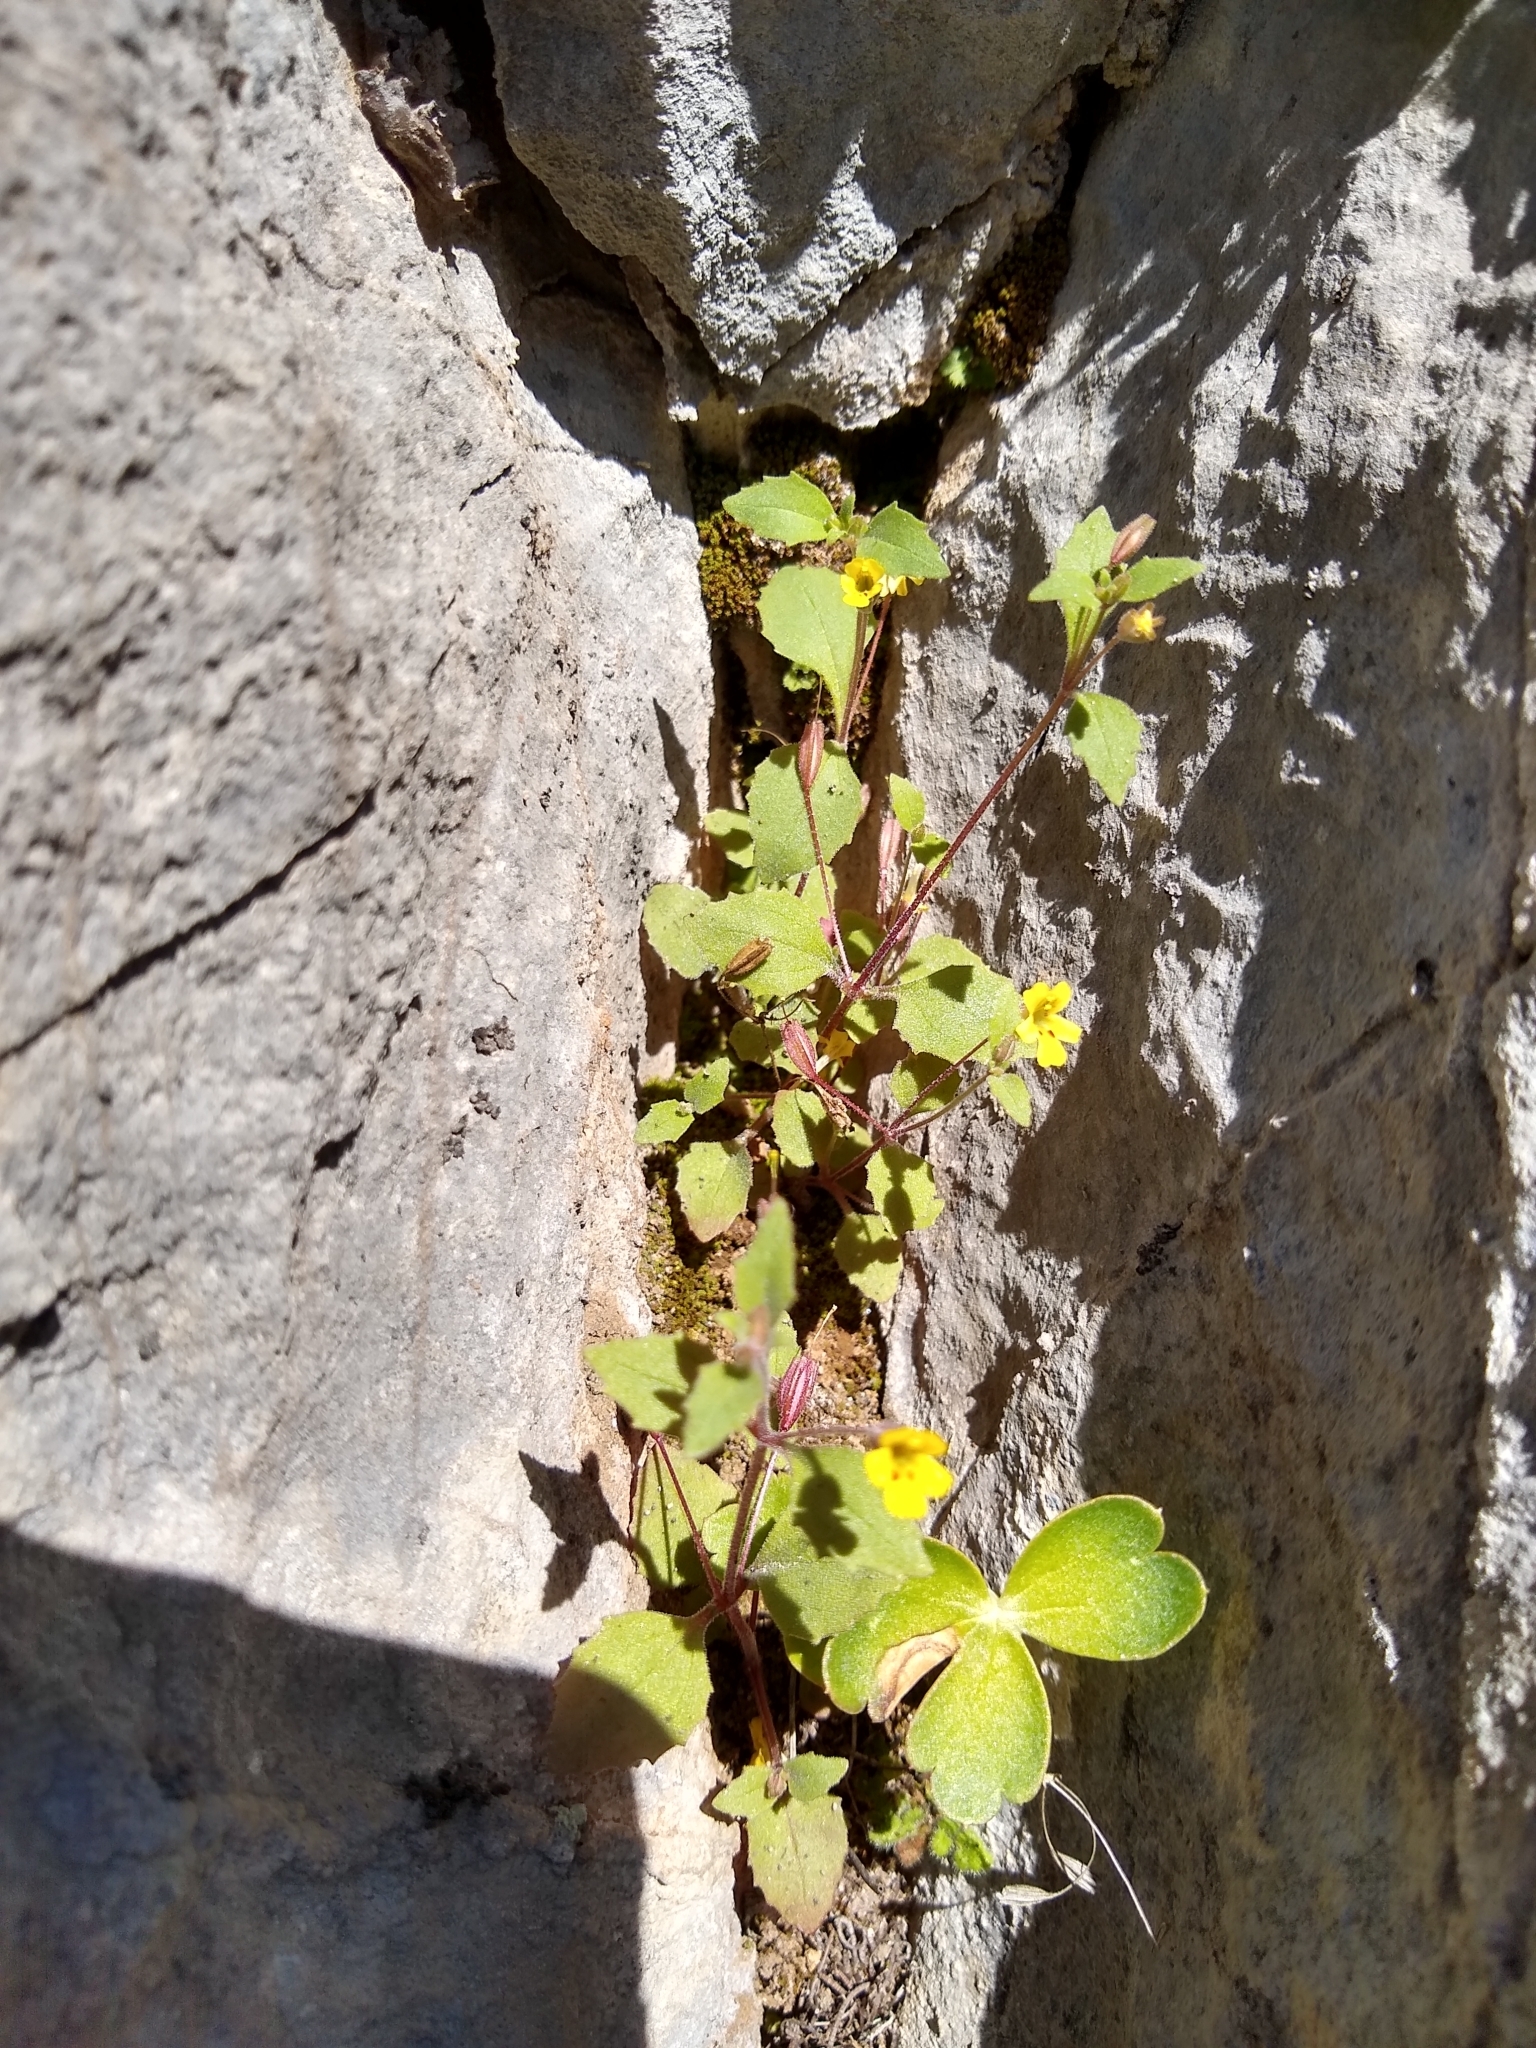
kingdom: Plantae
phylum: Tracheophyta
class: Magnoliopsida
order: Lamiales
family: Phrymaceae
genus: Erythranthe
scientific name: Erythranthe taylorii
